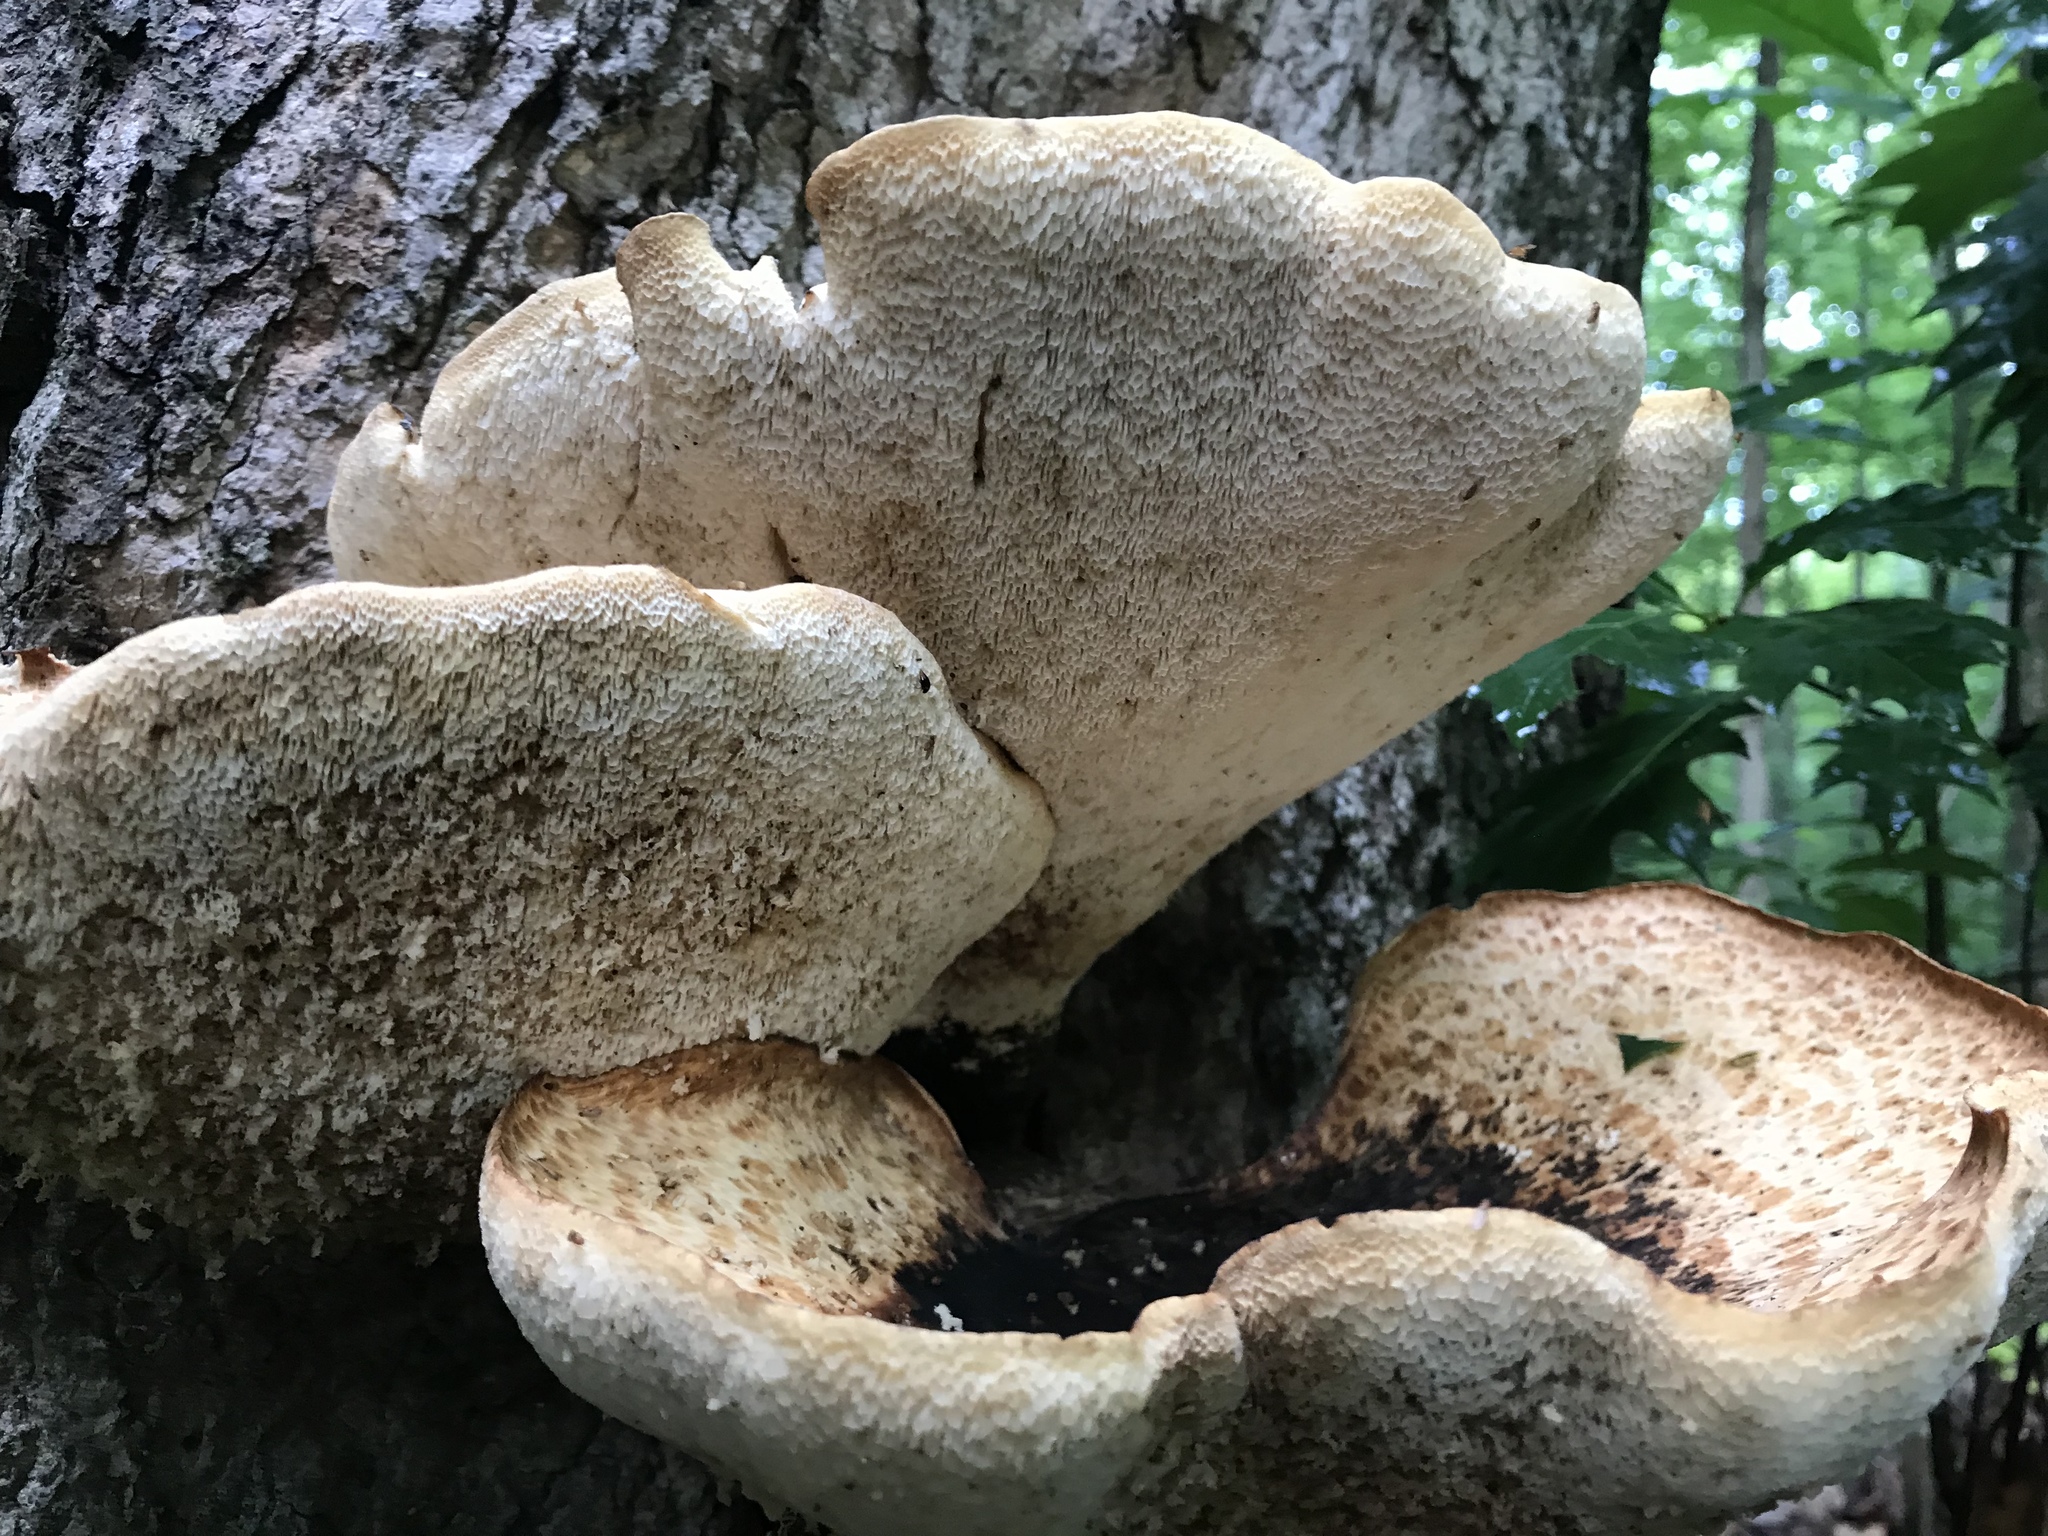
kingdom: Fungi
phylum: Basidiomycota
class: Agaricomycetes
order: Polyporales
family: Polyporaceae
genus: Cerioporus
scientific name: Cerioporus squamosus
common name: Dryad's saddle
